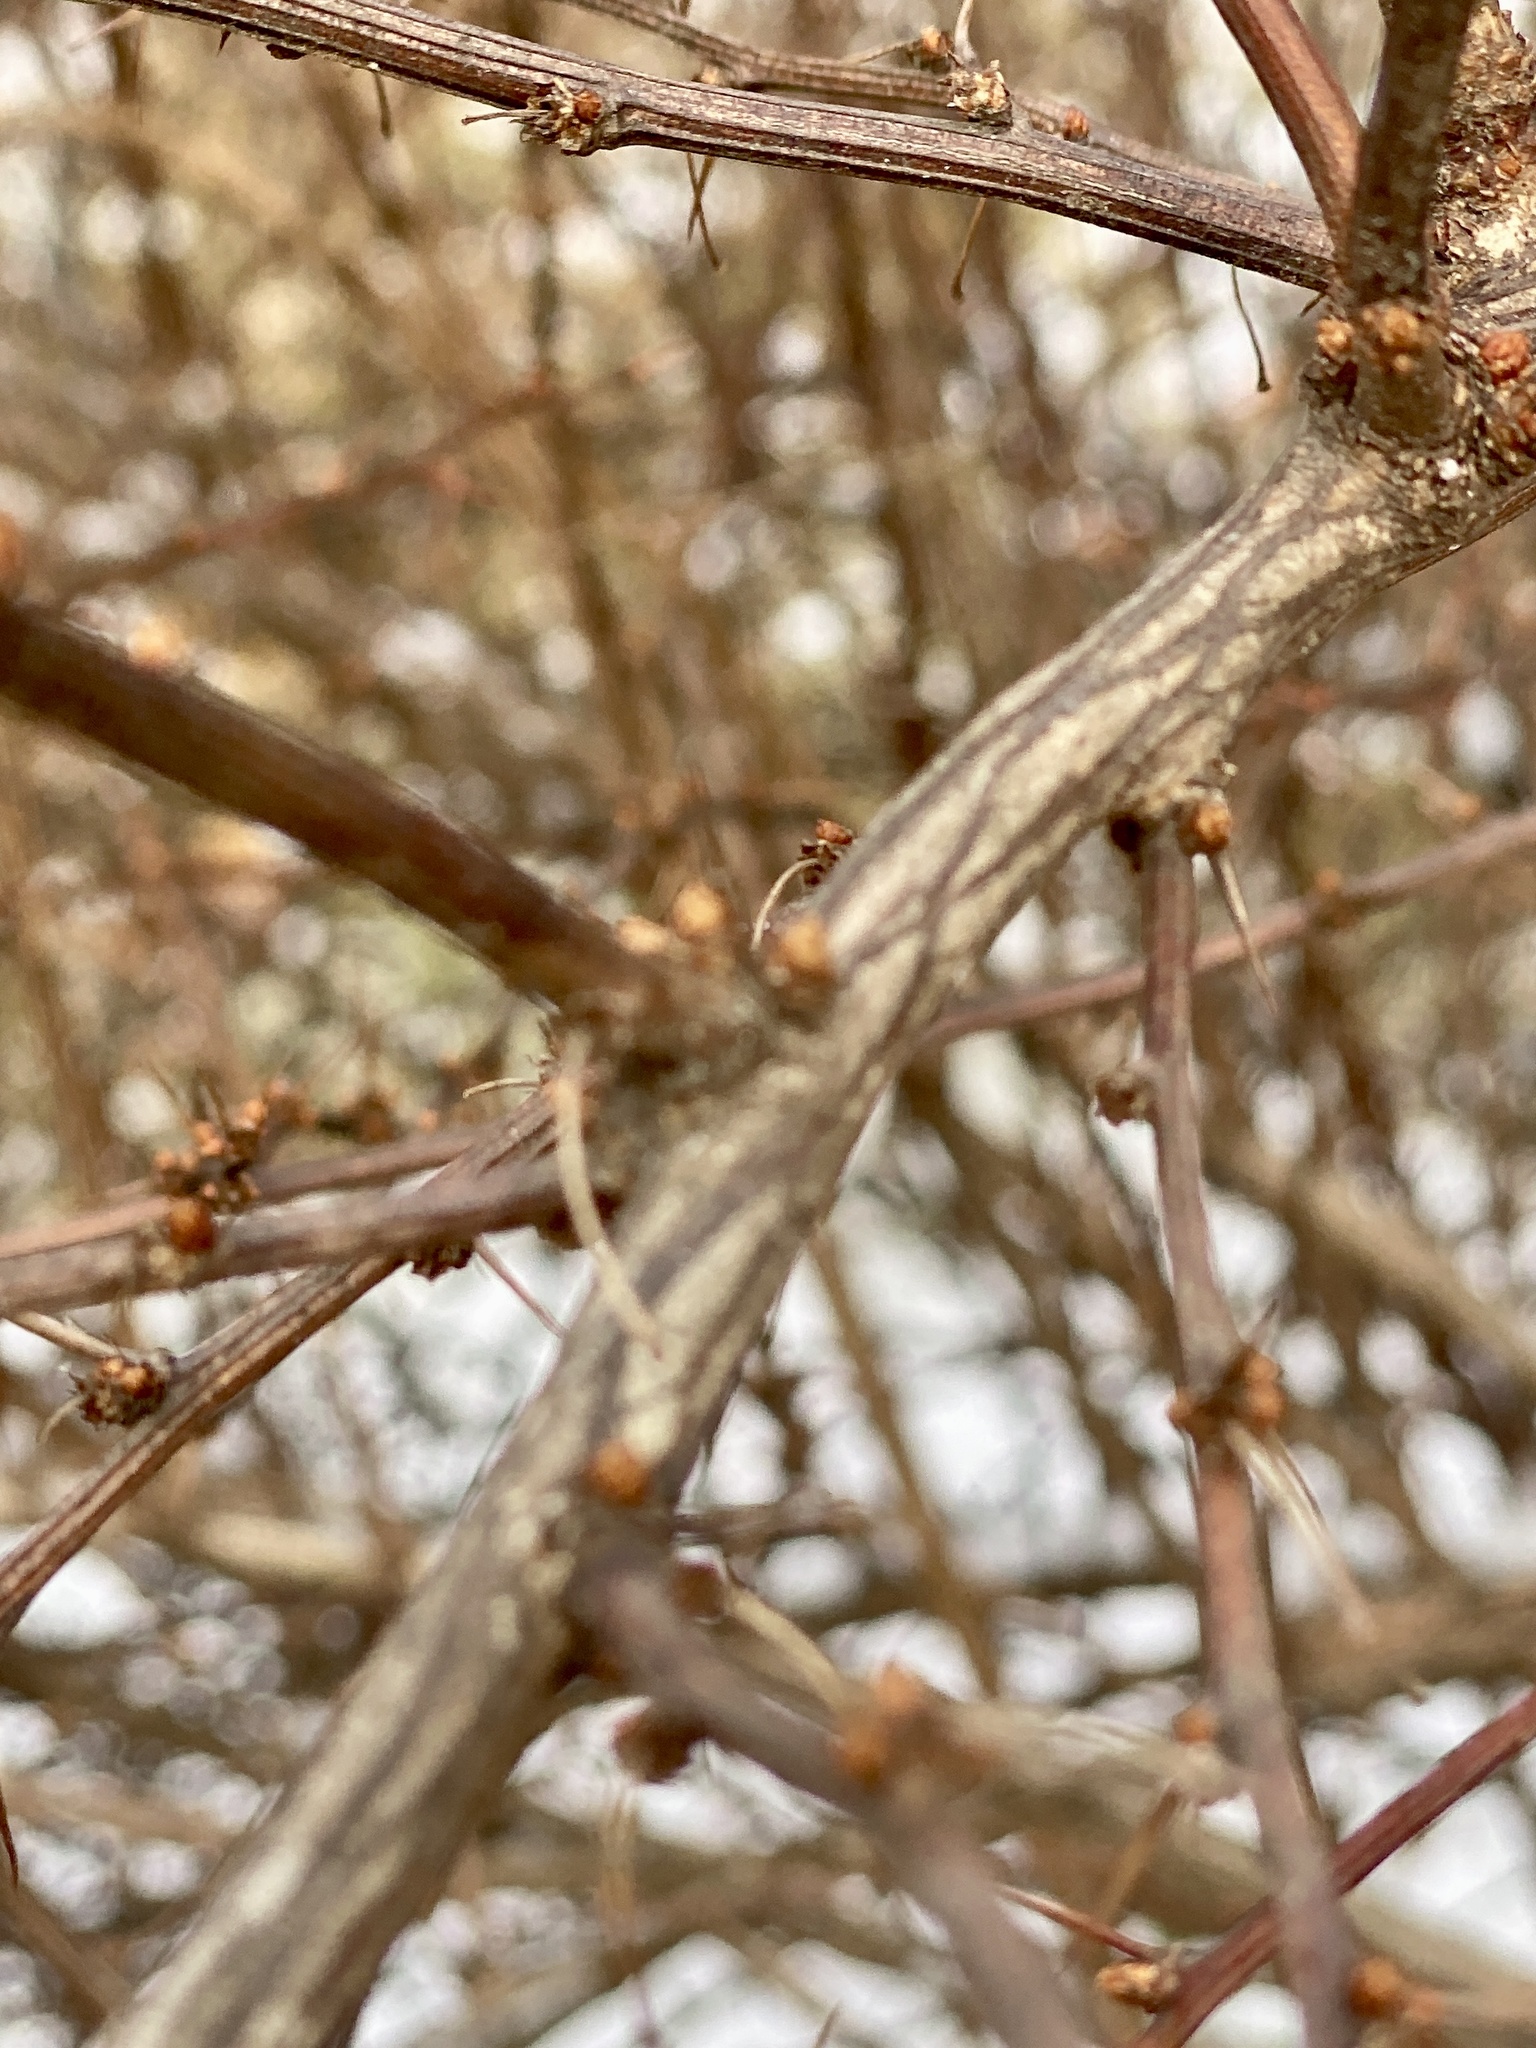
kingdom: Plantae
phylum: Tracheophyta
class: Magnoliopsida
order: Ranunculales
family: Berberidaceae
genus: Berberis
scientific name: Berberis thunbergii
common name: Japanese barberry
